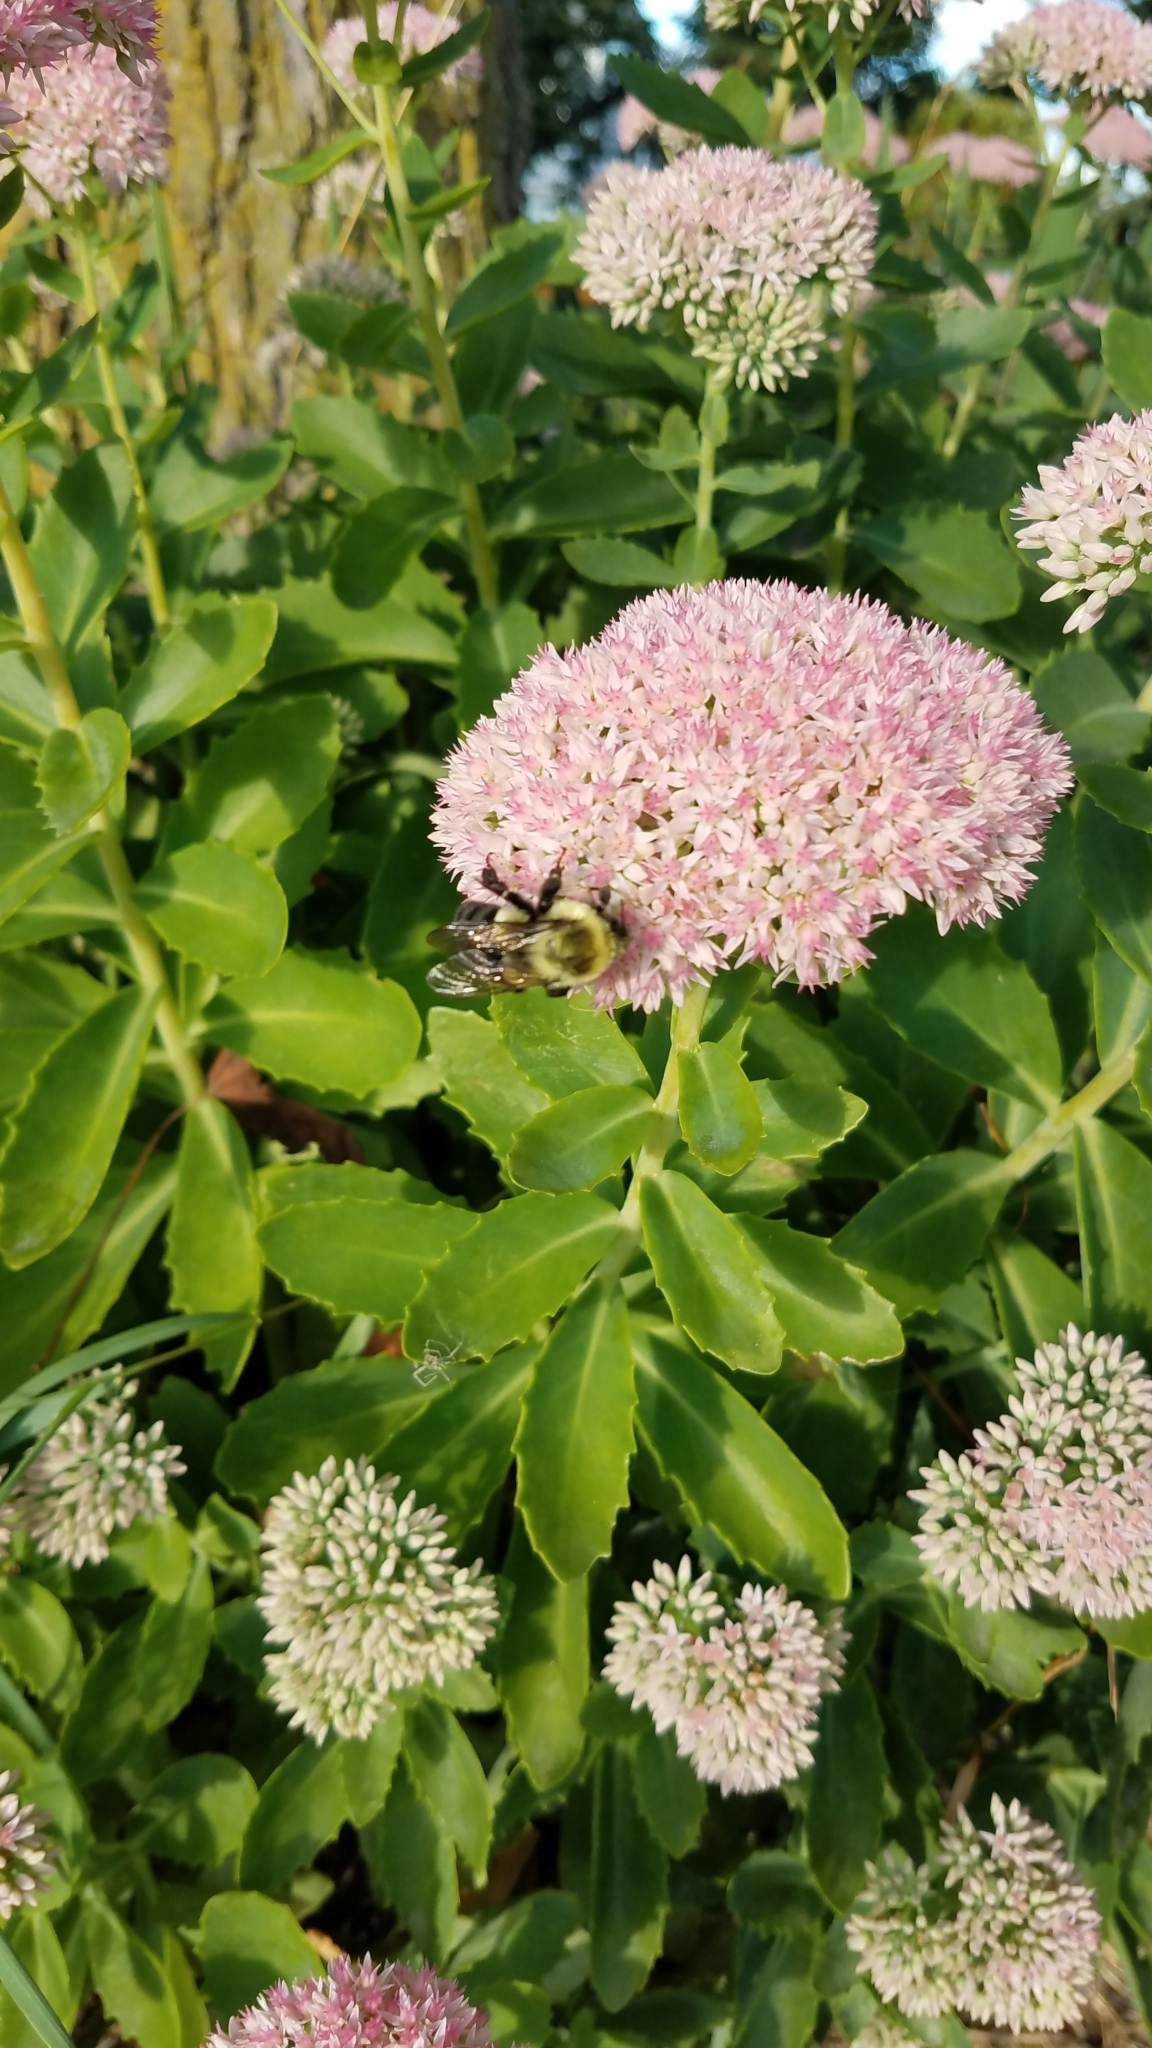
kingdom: Animalia
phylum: Arthropoda
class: Insecta
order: Hymenoptera
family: Apidae
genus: Bombus
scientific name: Bombus impatiens
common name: Common eastern bumble bee
